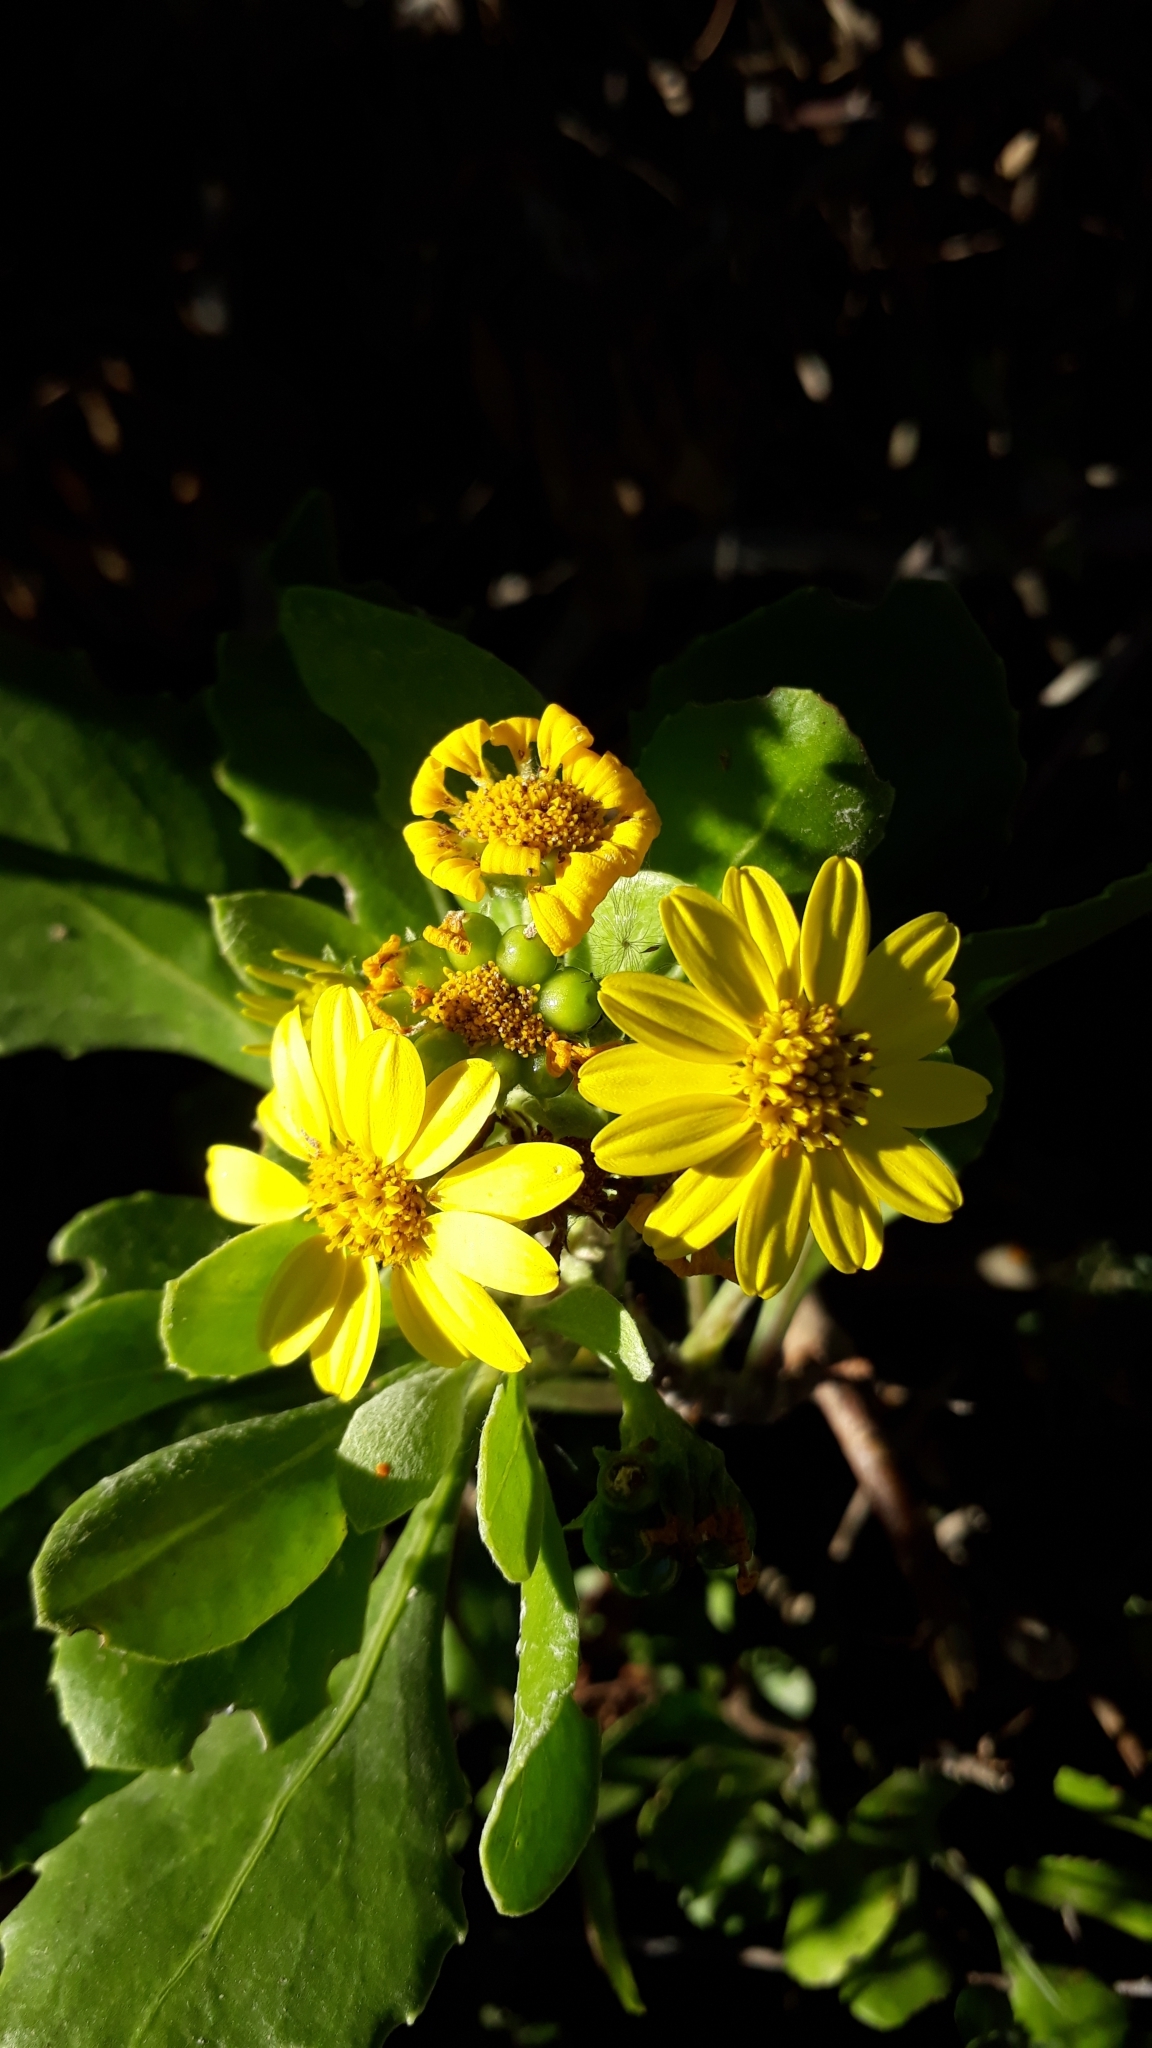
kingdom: Plantae
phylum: Tracheophyta
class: Magnoliopsida
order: Asterales
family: Asteraceae
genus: Osteospermum
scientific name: Osteospermum moniliferum
